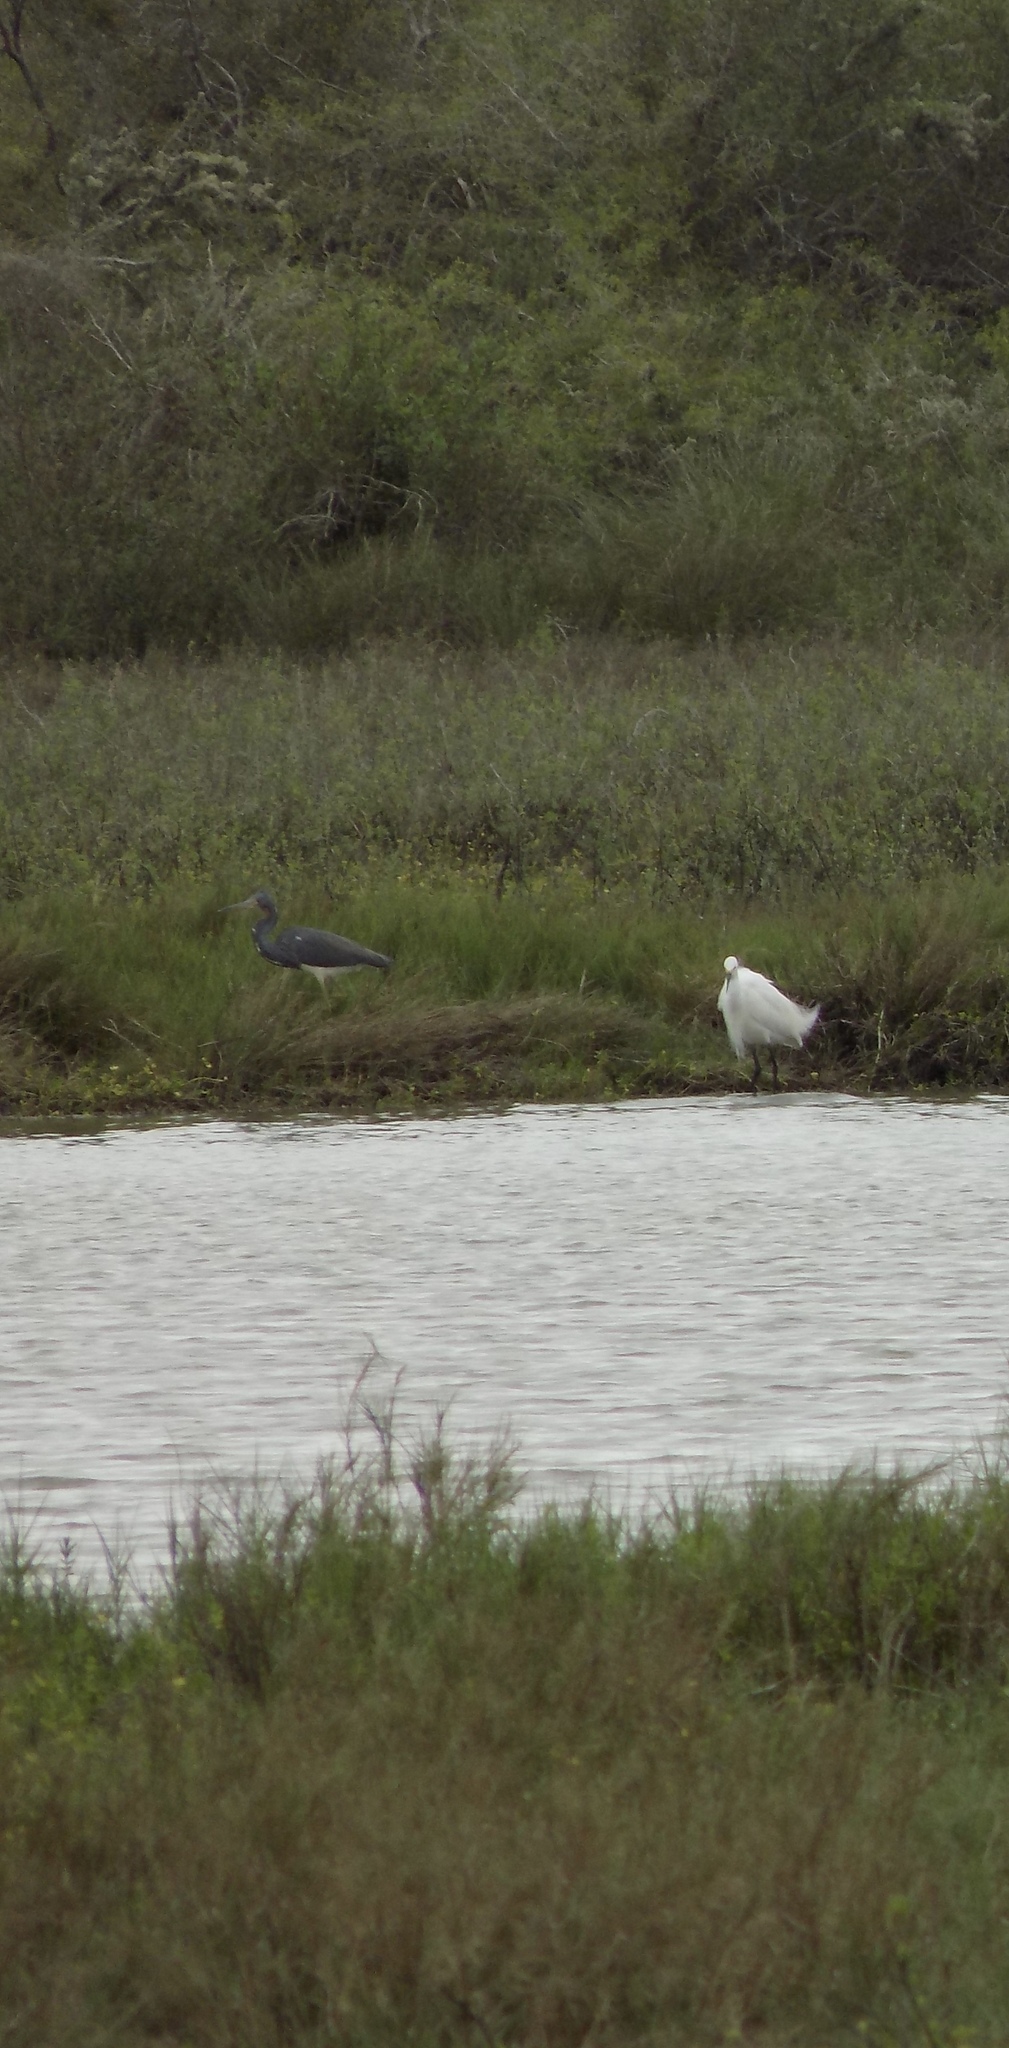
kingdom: Animalia
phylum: Chordata
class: Aves
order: Pelecaniformes
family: Ardeidae
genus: Egretta
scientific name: Egretta tricolor
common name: Tricolored heron
